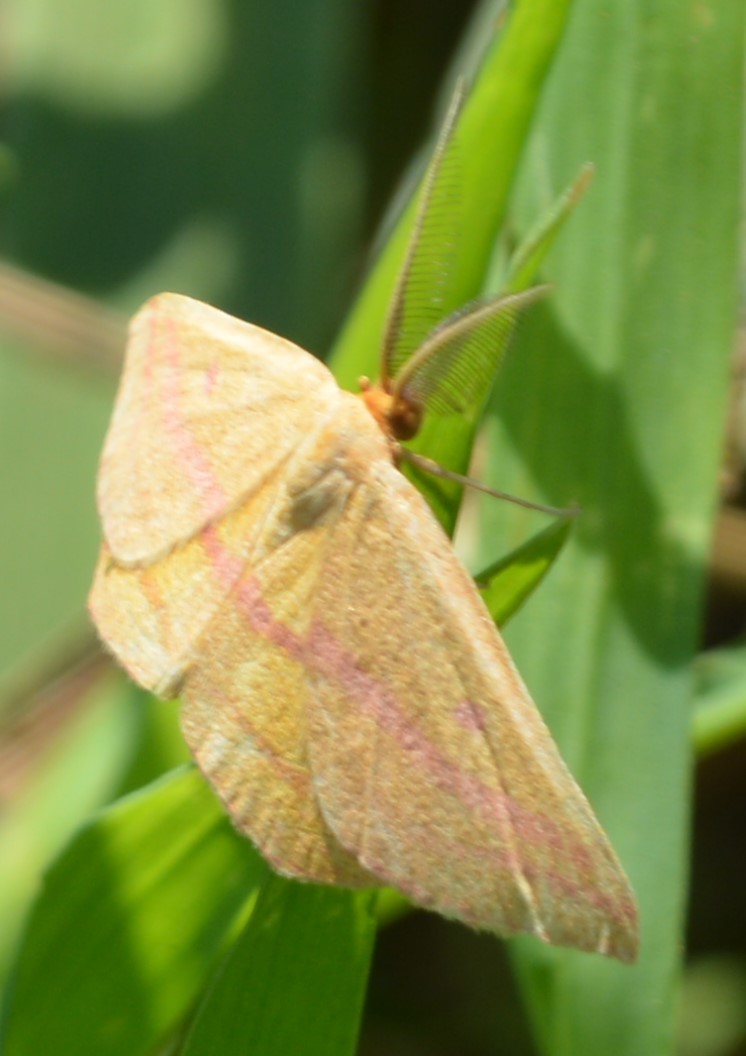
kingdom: Animalia
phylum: Arthropoda
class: Insecta
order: Lepidoptera
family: Geometridae
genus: Haematopis
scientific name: Haematopis grataria
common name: Chickweed geometer
